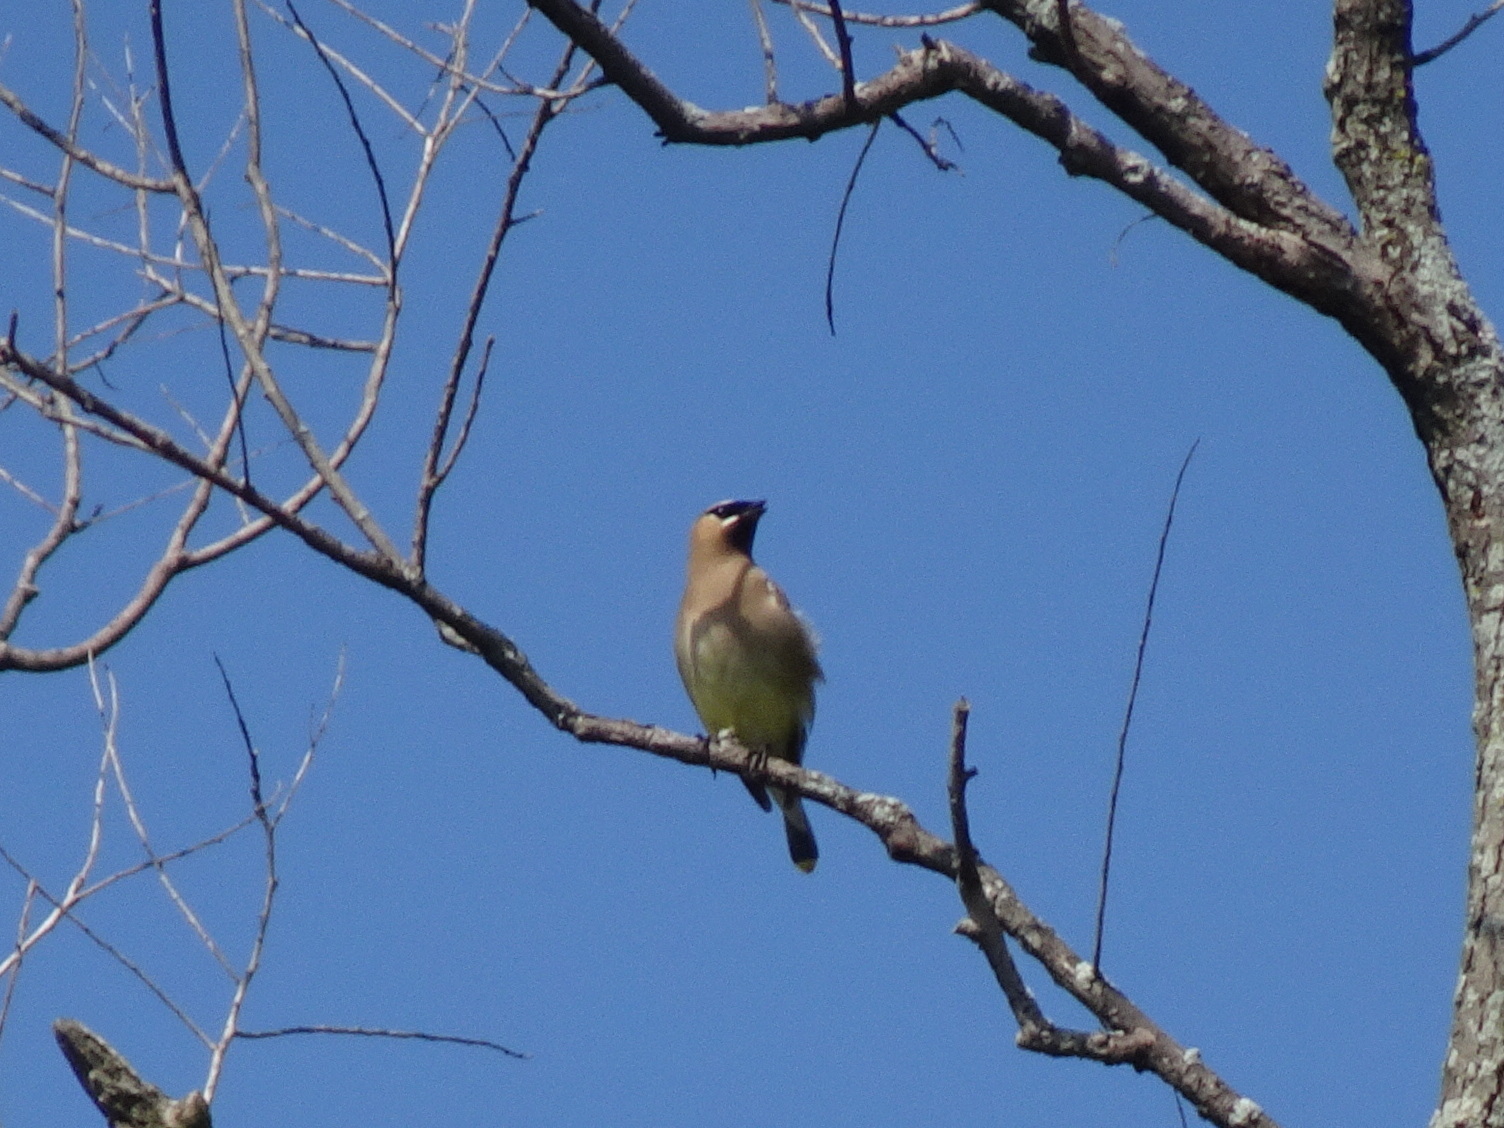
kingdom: Animalia
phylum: Chordata
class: Aves
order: Passeriformes
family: Bombycillidae
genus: Bombycilla
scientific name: Bombycilla cedrorum
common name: Cedar waxwing
